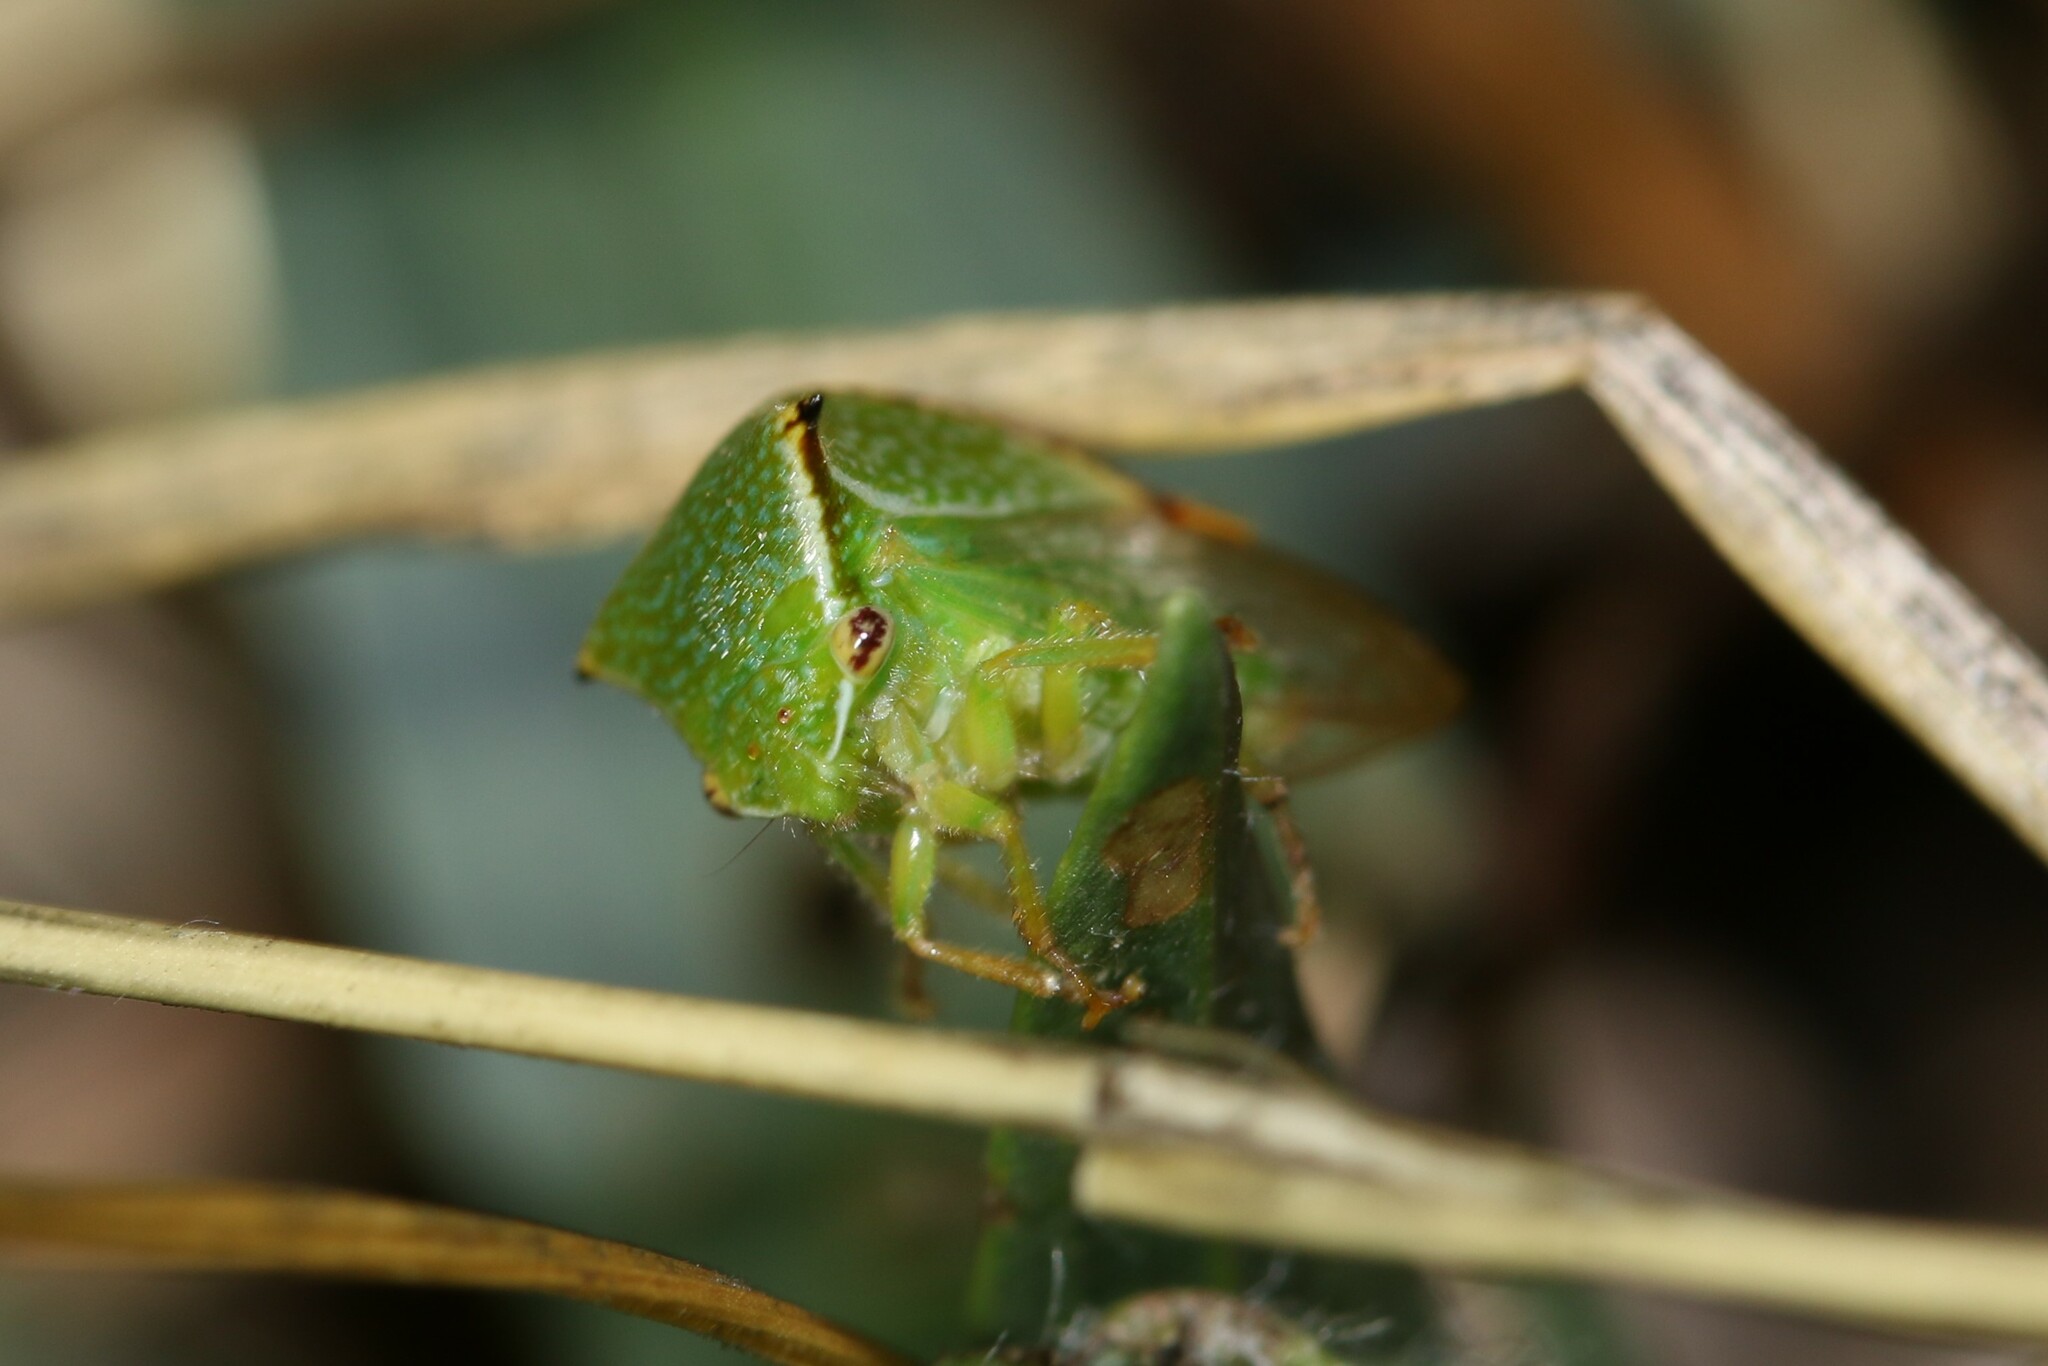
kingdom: Animalia
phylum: Arthropoda
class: Insecta
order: Hemiptera
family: Membracidae
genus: Stictocephala
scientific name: Stictocephala bisonia
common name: American buffalo treehopper
